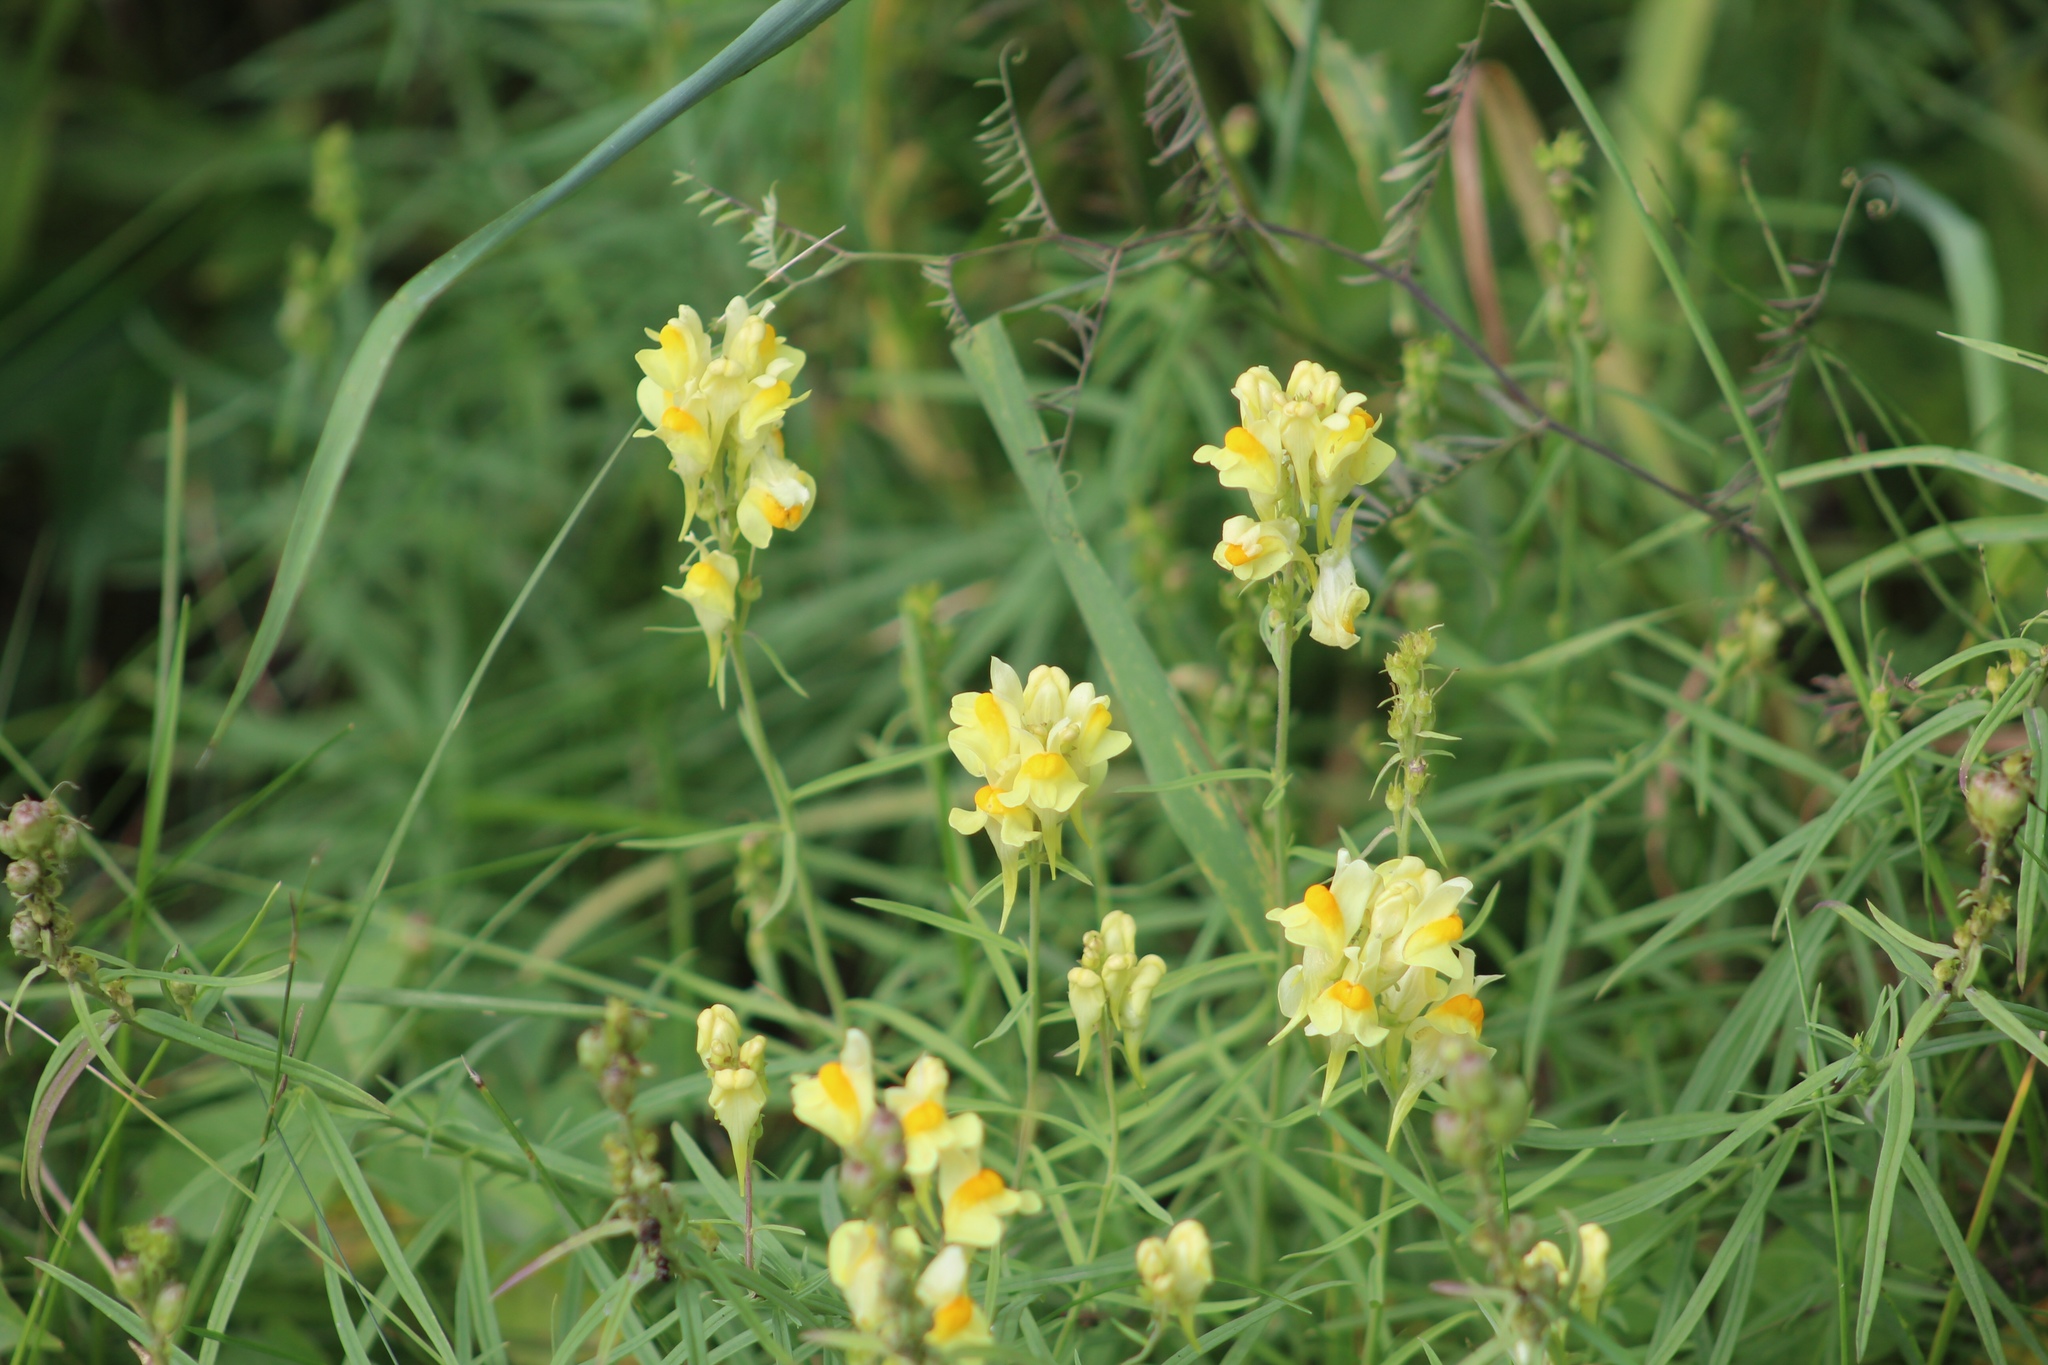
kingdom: Plantae
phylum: Tracheophyta
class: Magnoliopsida
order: Lamiales
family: Plantaginaceae
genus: Linaria
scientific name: Linaria vulgaris
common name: Butter and eggs
